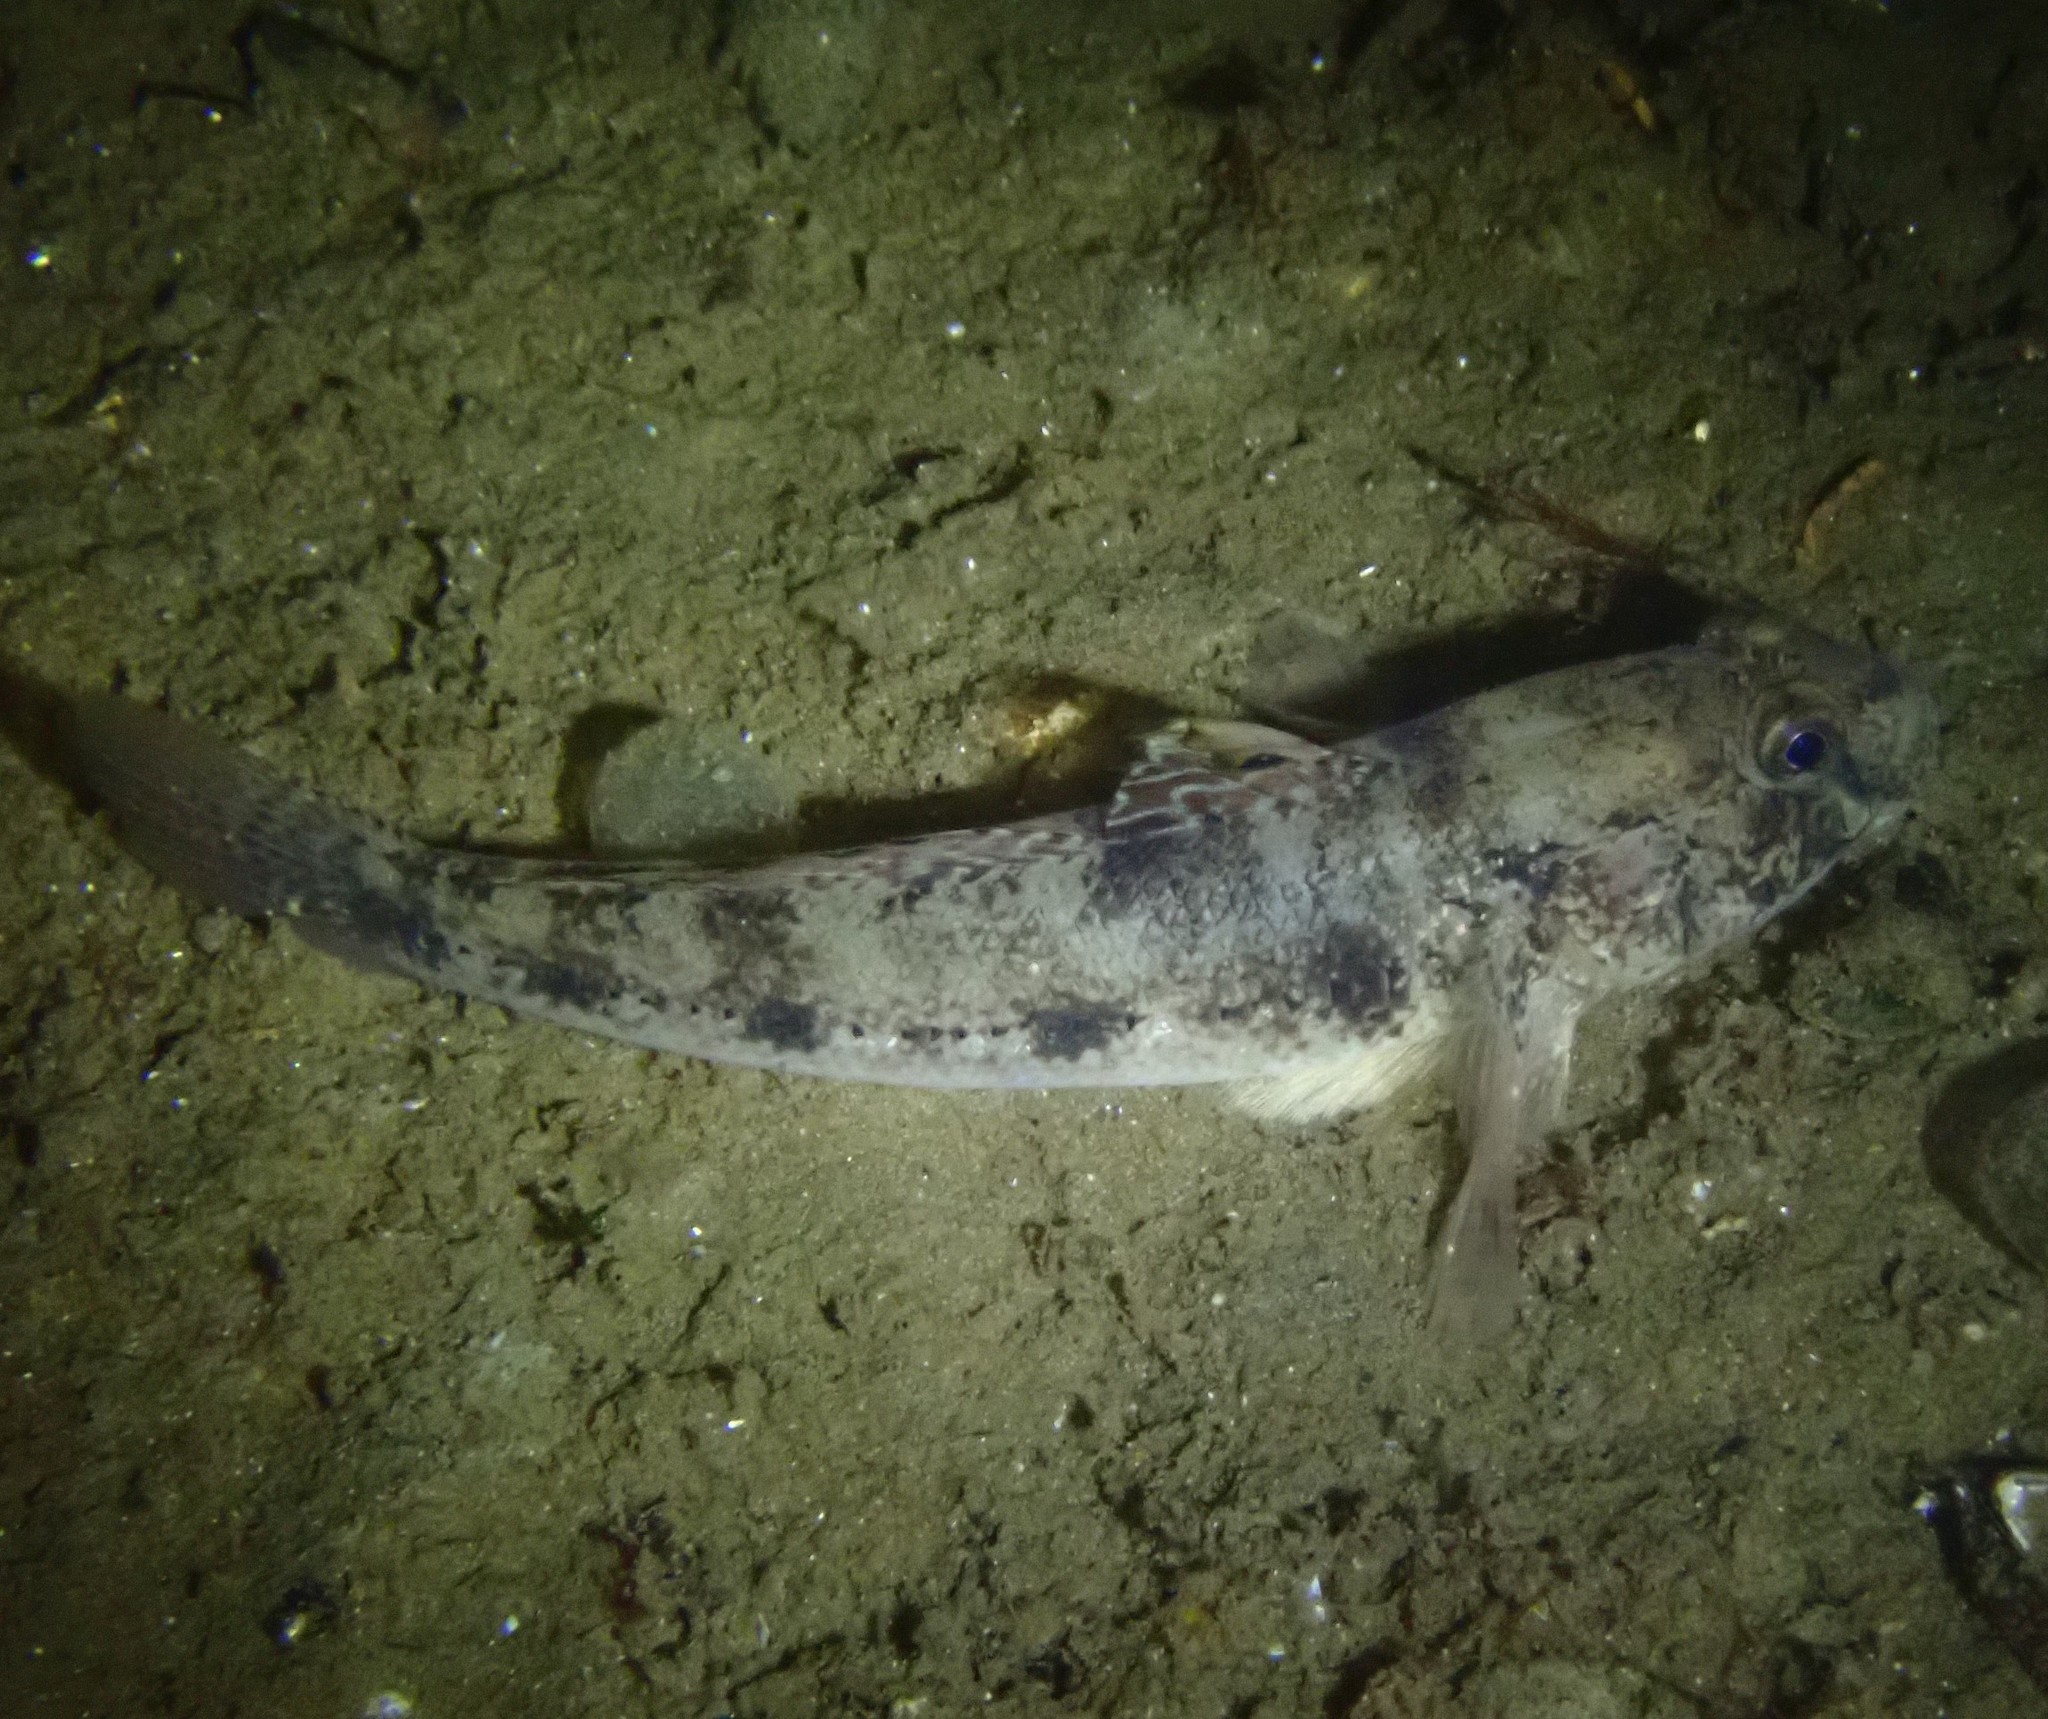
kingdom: Animalia
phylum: Chordata
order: Perciformes
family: Gobiidae
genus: Gobius
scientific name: Gobius niger
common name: Black goby
